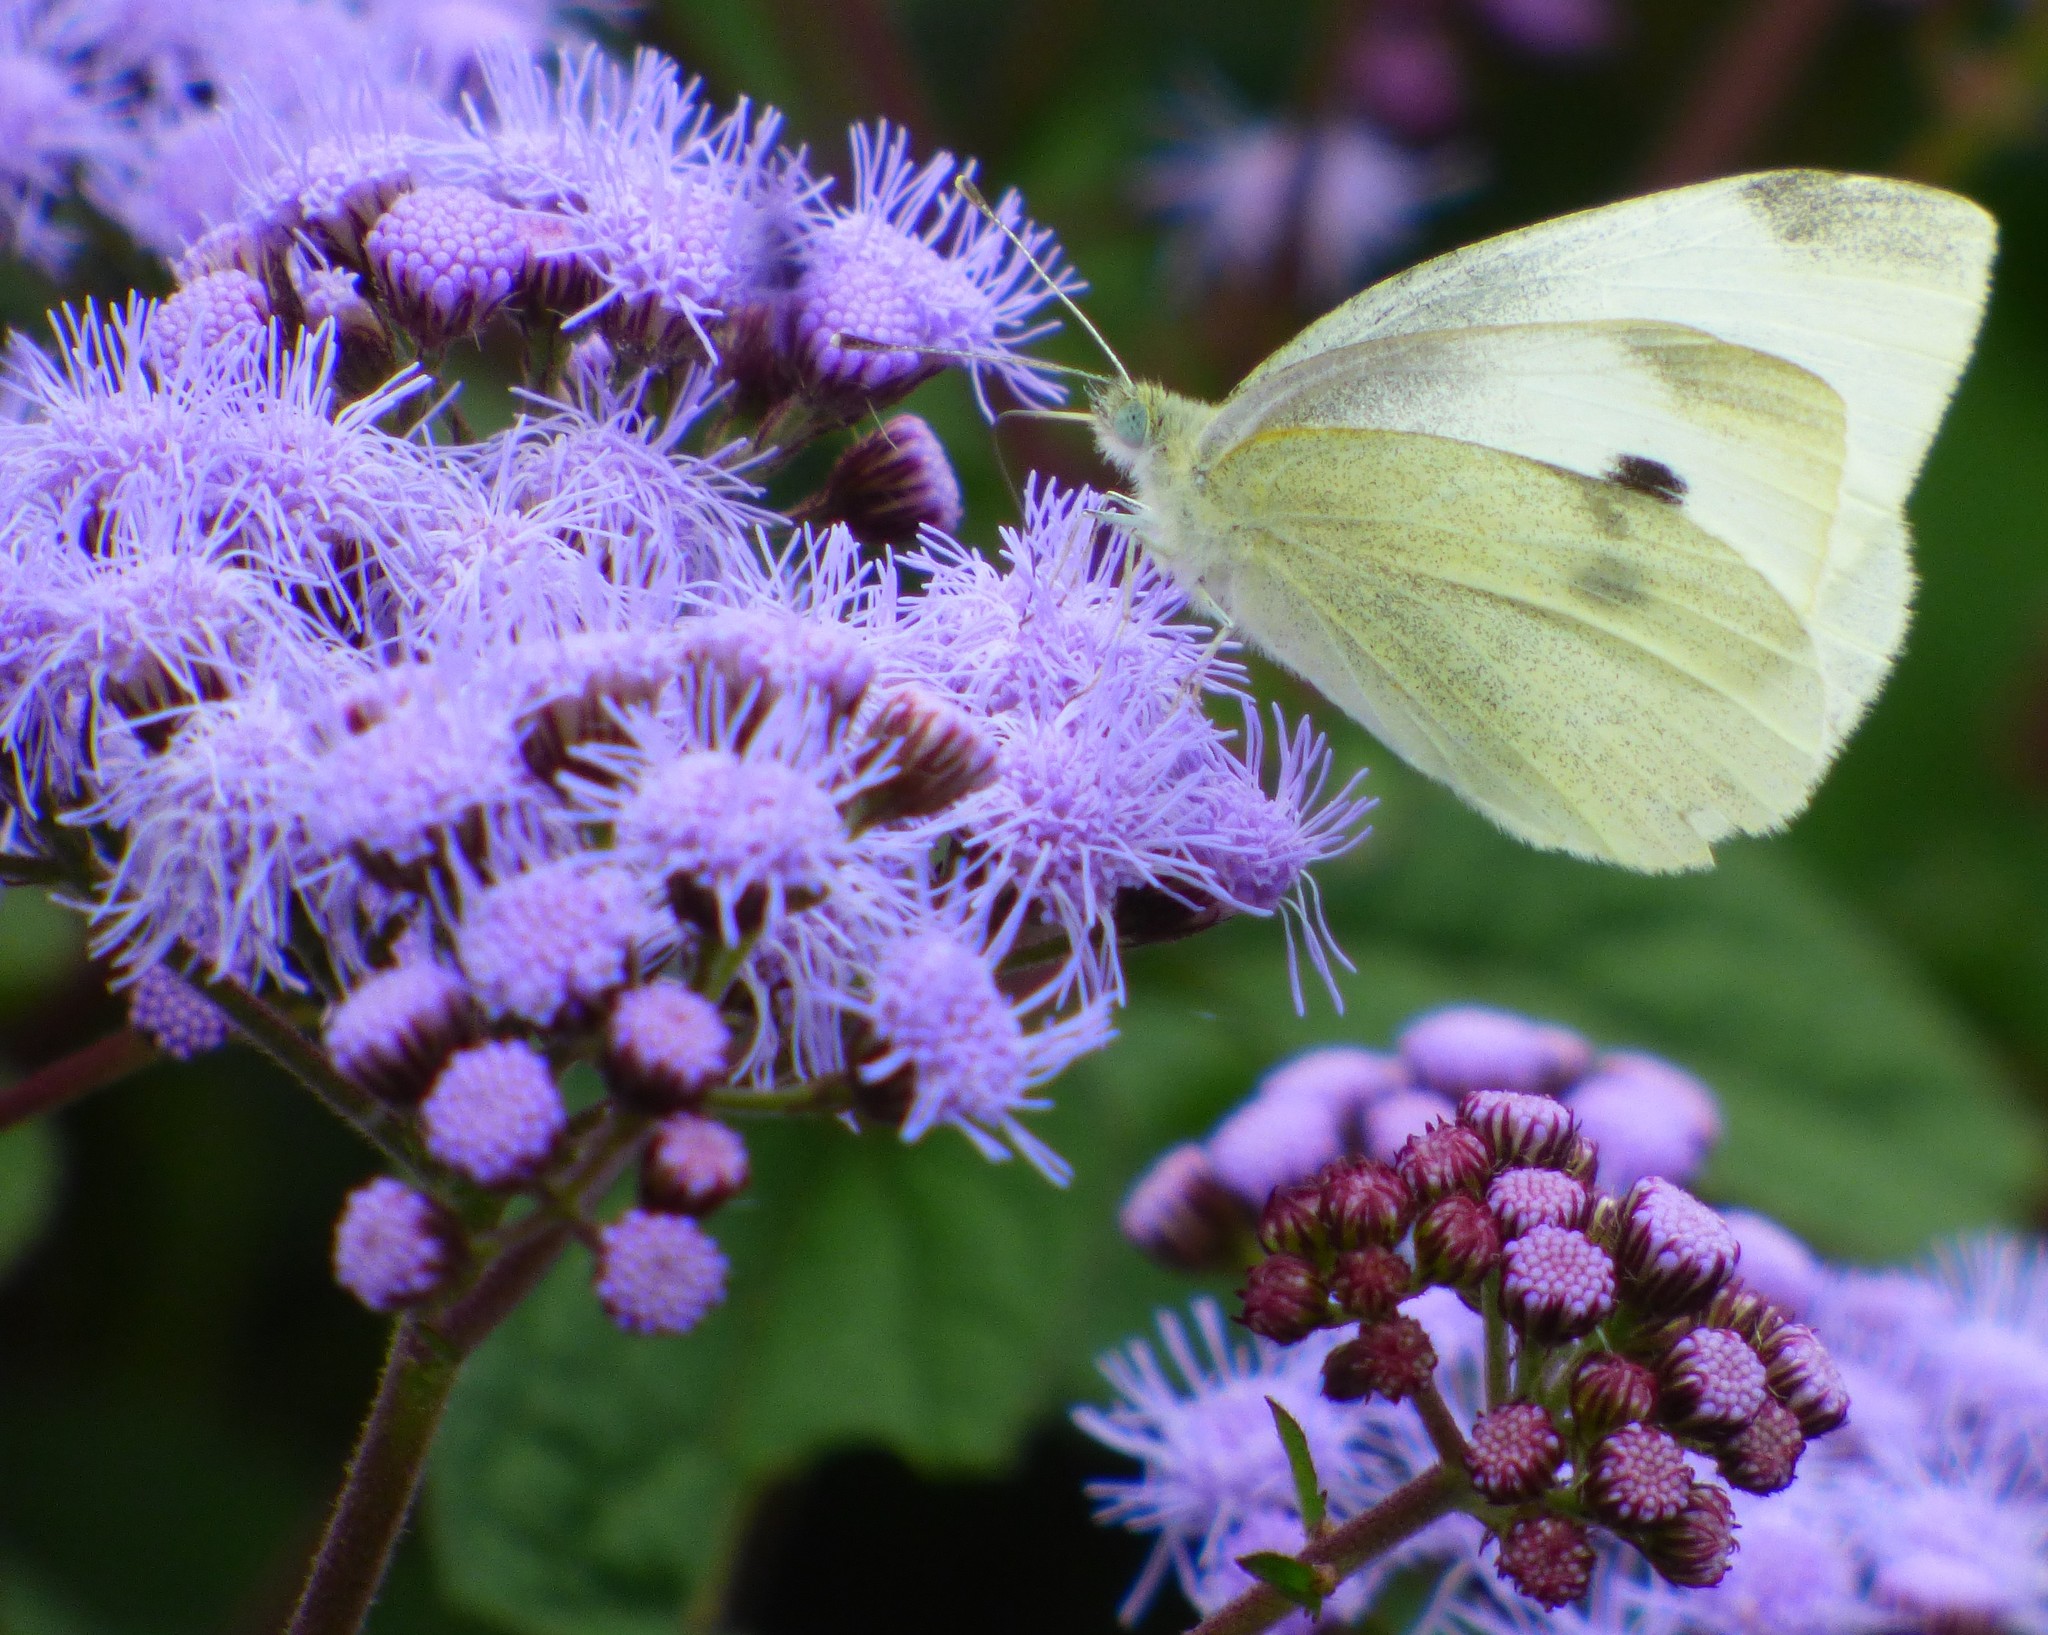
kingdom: Animalia
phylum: Arthropoda
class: Insecta
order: Lepidoptera
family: Pieridae
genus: Pieris
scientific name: Pieris rapae
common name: Small white
